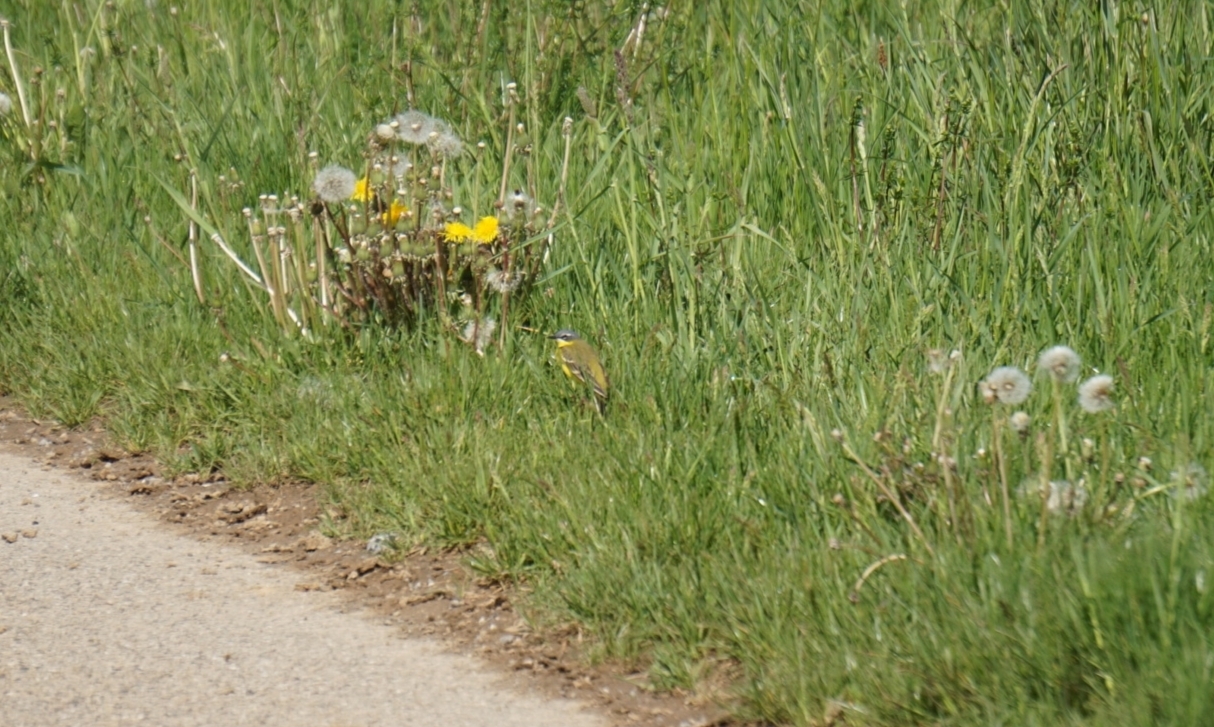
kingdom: Animalia
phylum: Chordata
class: Aves
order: Passeriformes
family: Motacillidae
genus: Motacilla
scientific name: Motacilla flava
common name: Western yellow wagtail
